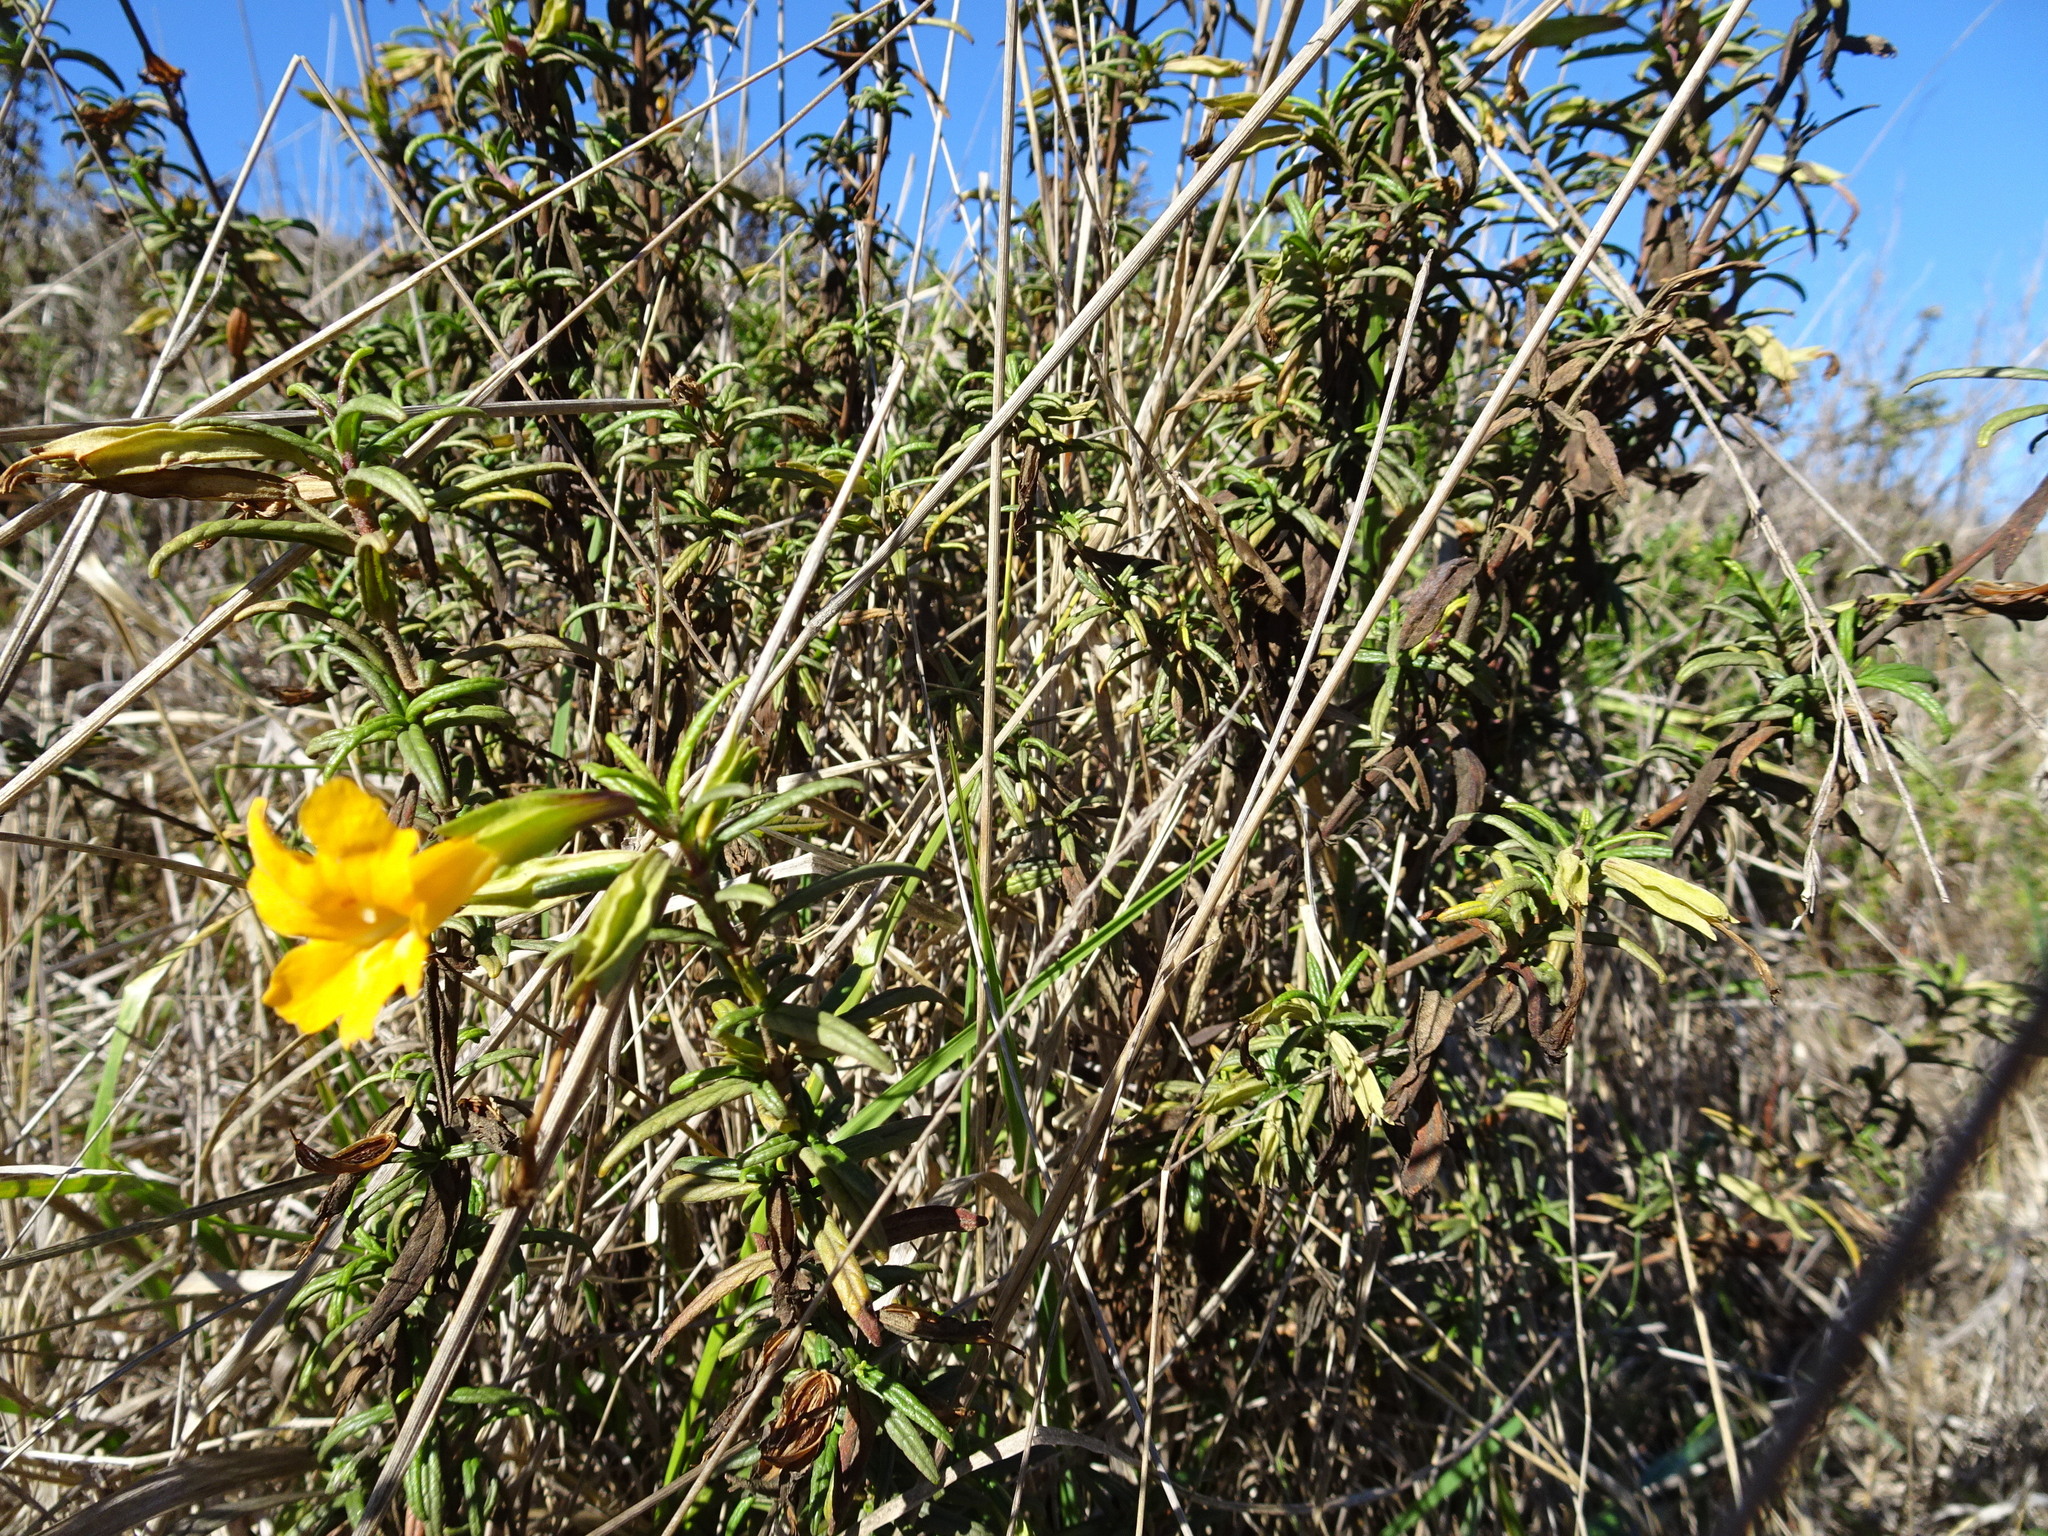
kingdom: Plantae
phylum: Tracheophyta
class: Magnoliopsida
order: Lamiales
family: Phrymaceae
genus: Diplacus
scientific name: Diplacus aurantiacus
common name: Bush monkey-flower
